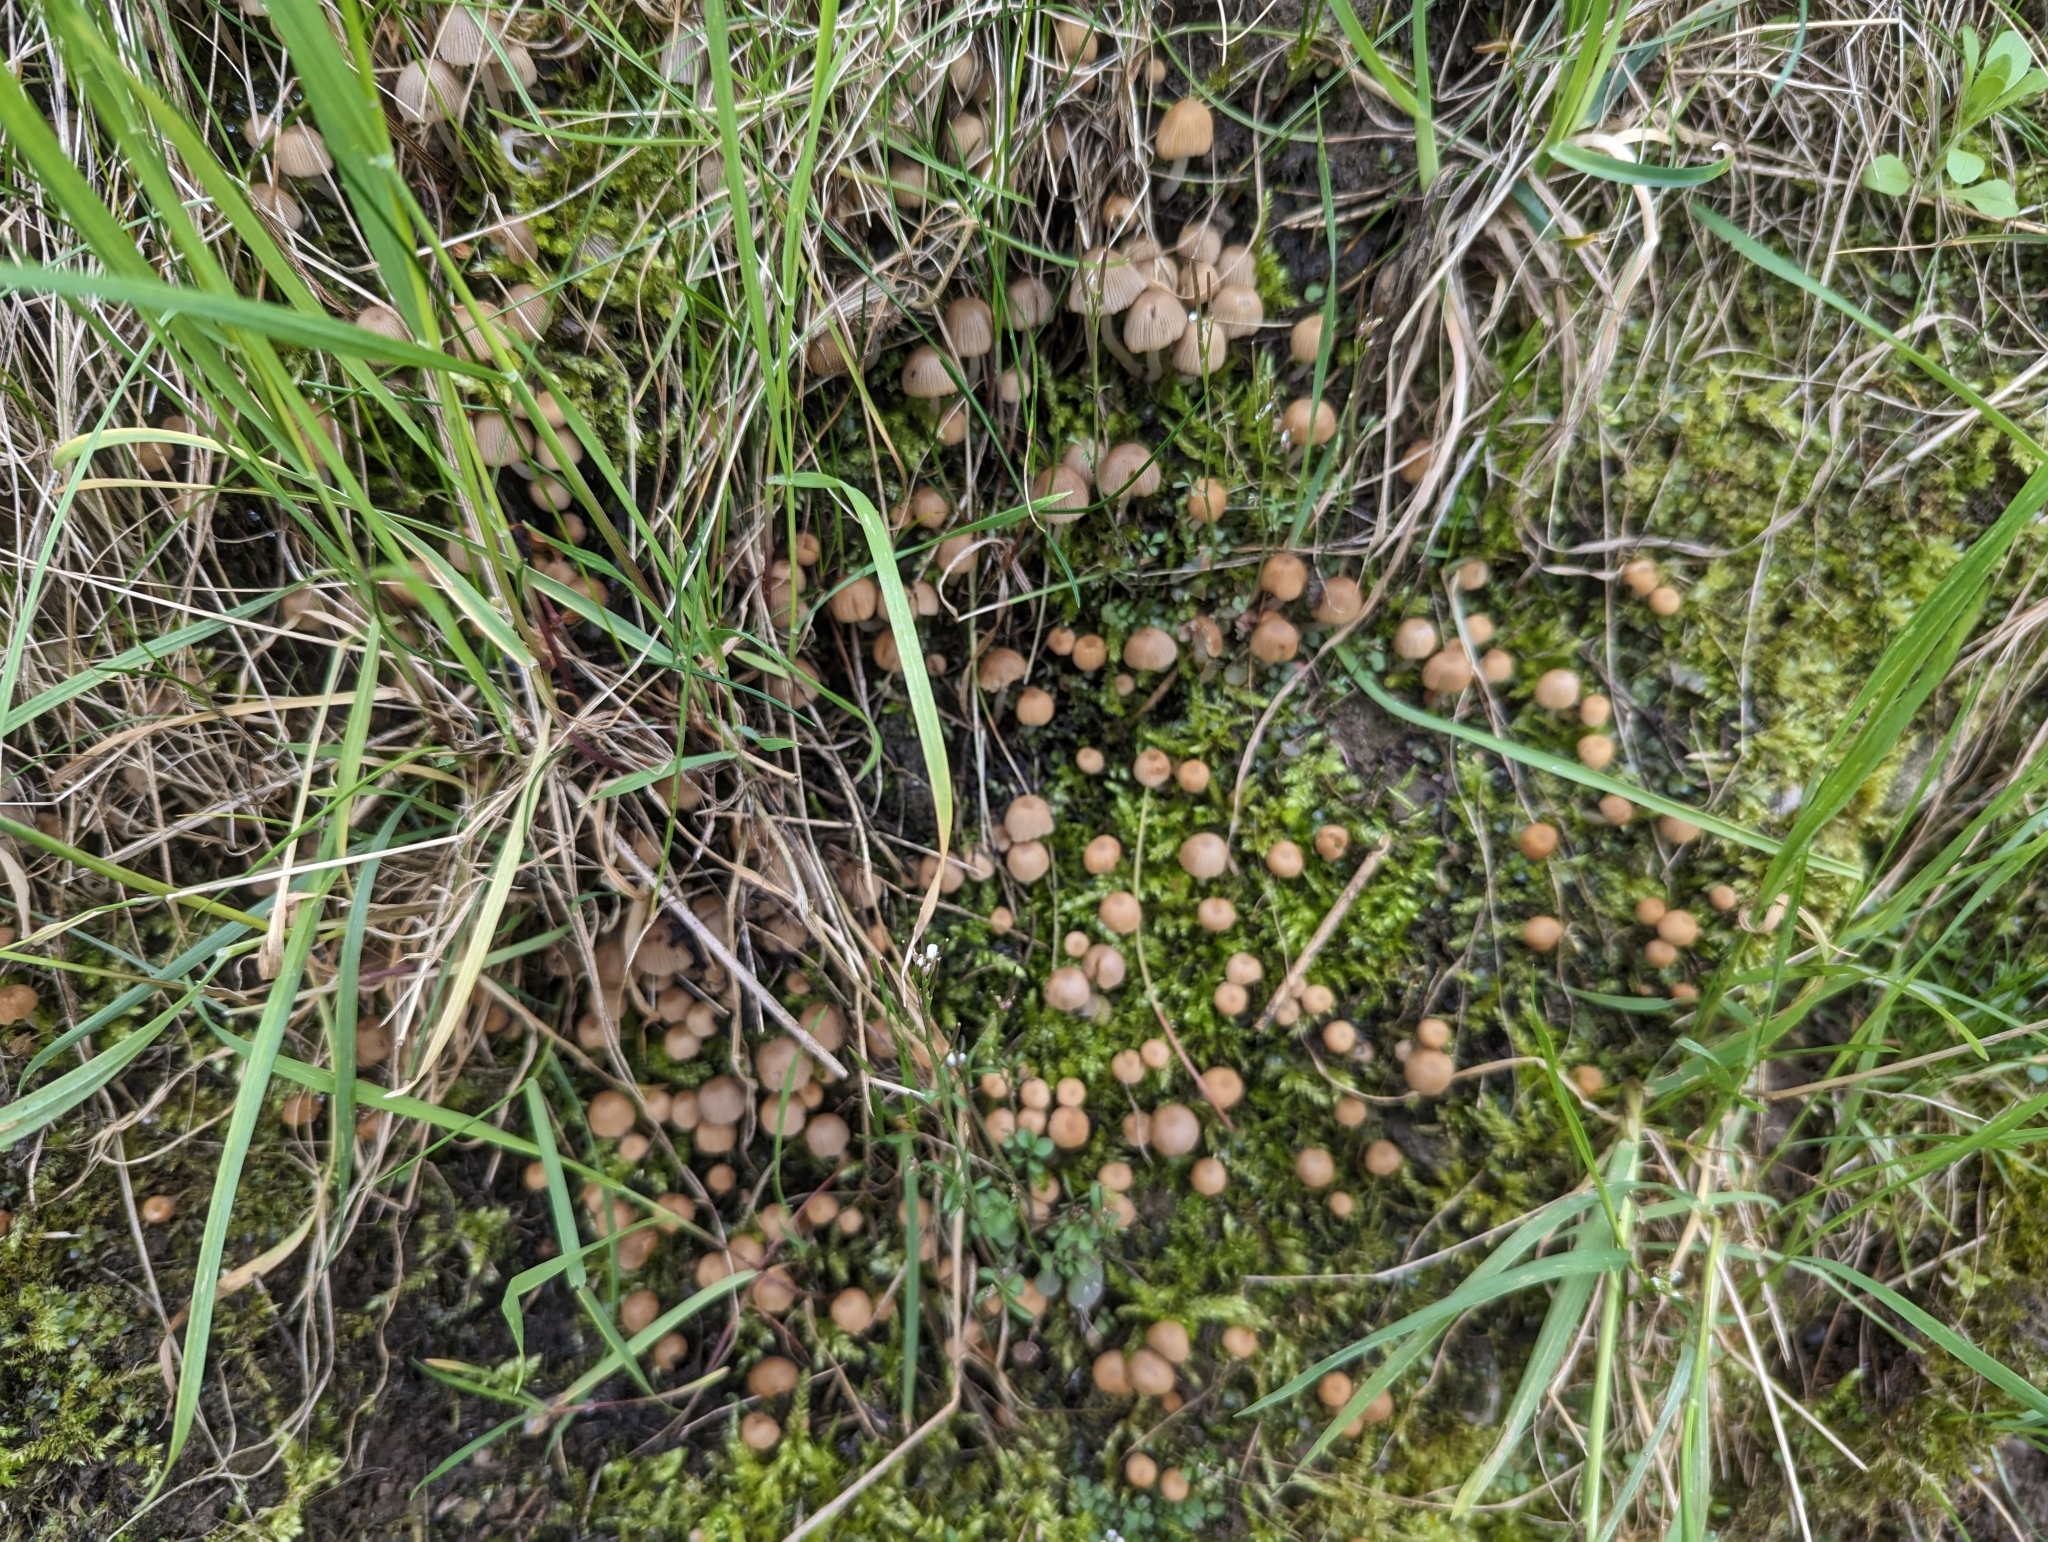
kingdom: Fungi
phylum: Basidiomycota
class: Agaricomycetes
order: Agaricales
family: Psathyrellaceae
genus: Coprinellus
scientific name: Coprinellus disseminatus
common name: Fairies' bonnets
